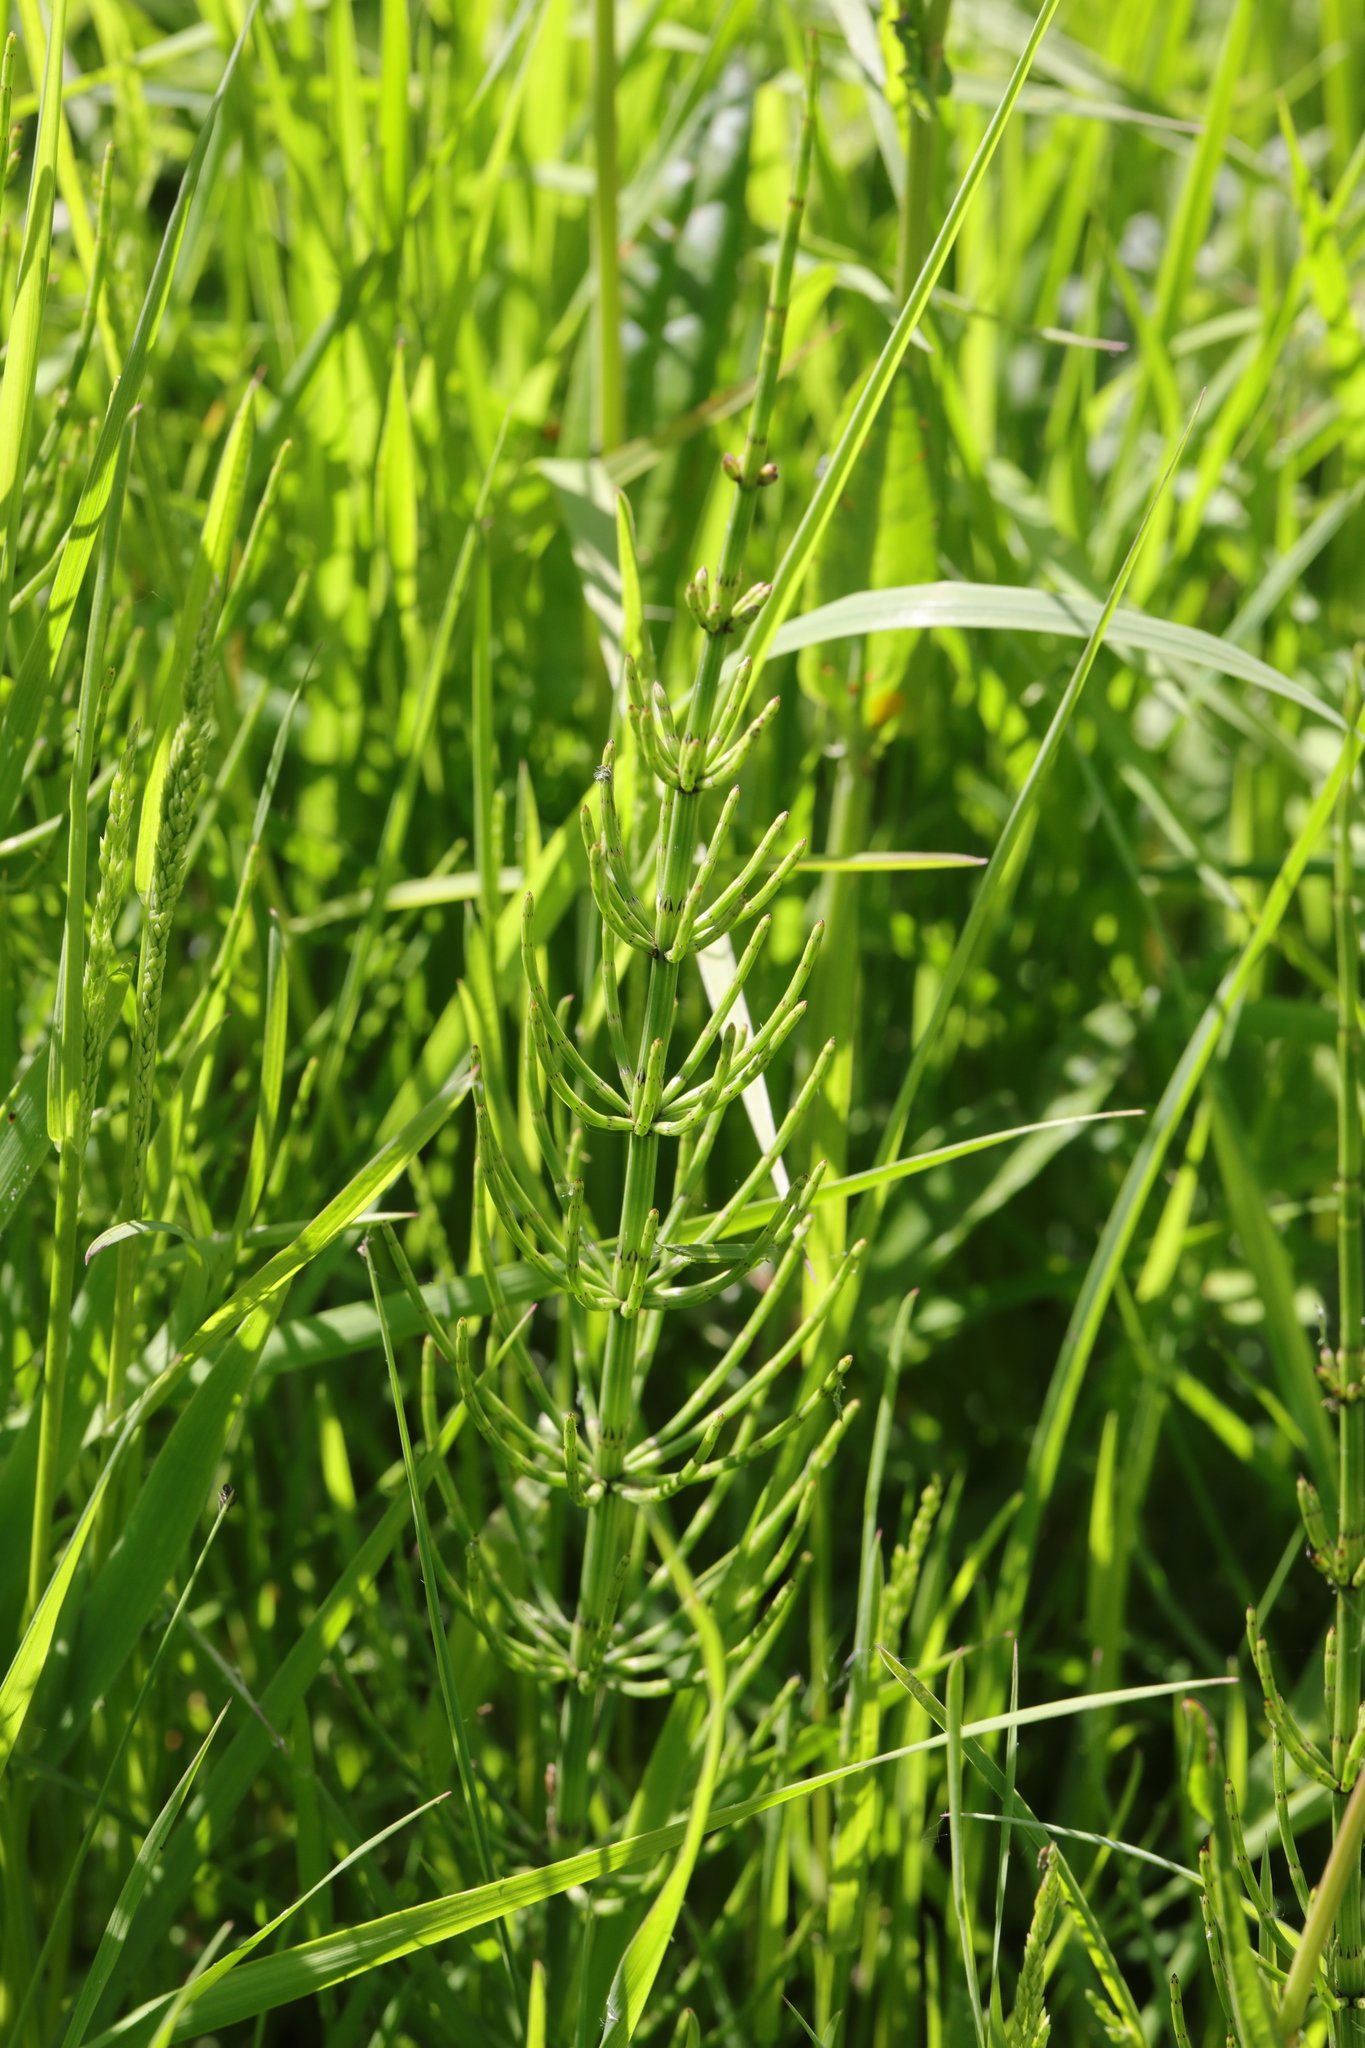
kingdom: Plantae
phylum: Tracheophyta
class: Polypodiopsida
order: Equisetales
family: Equisetaceae
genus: Equisetum
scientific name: Equisetum palustre
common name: Marsh horsetail
